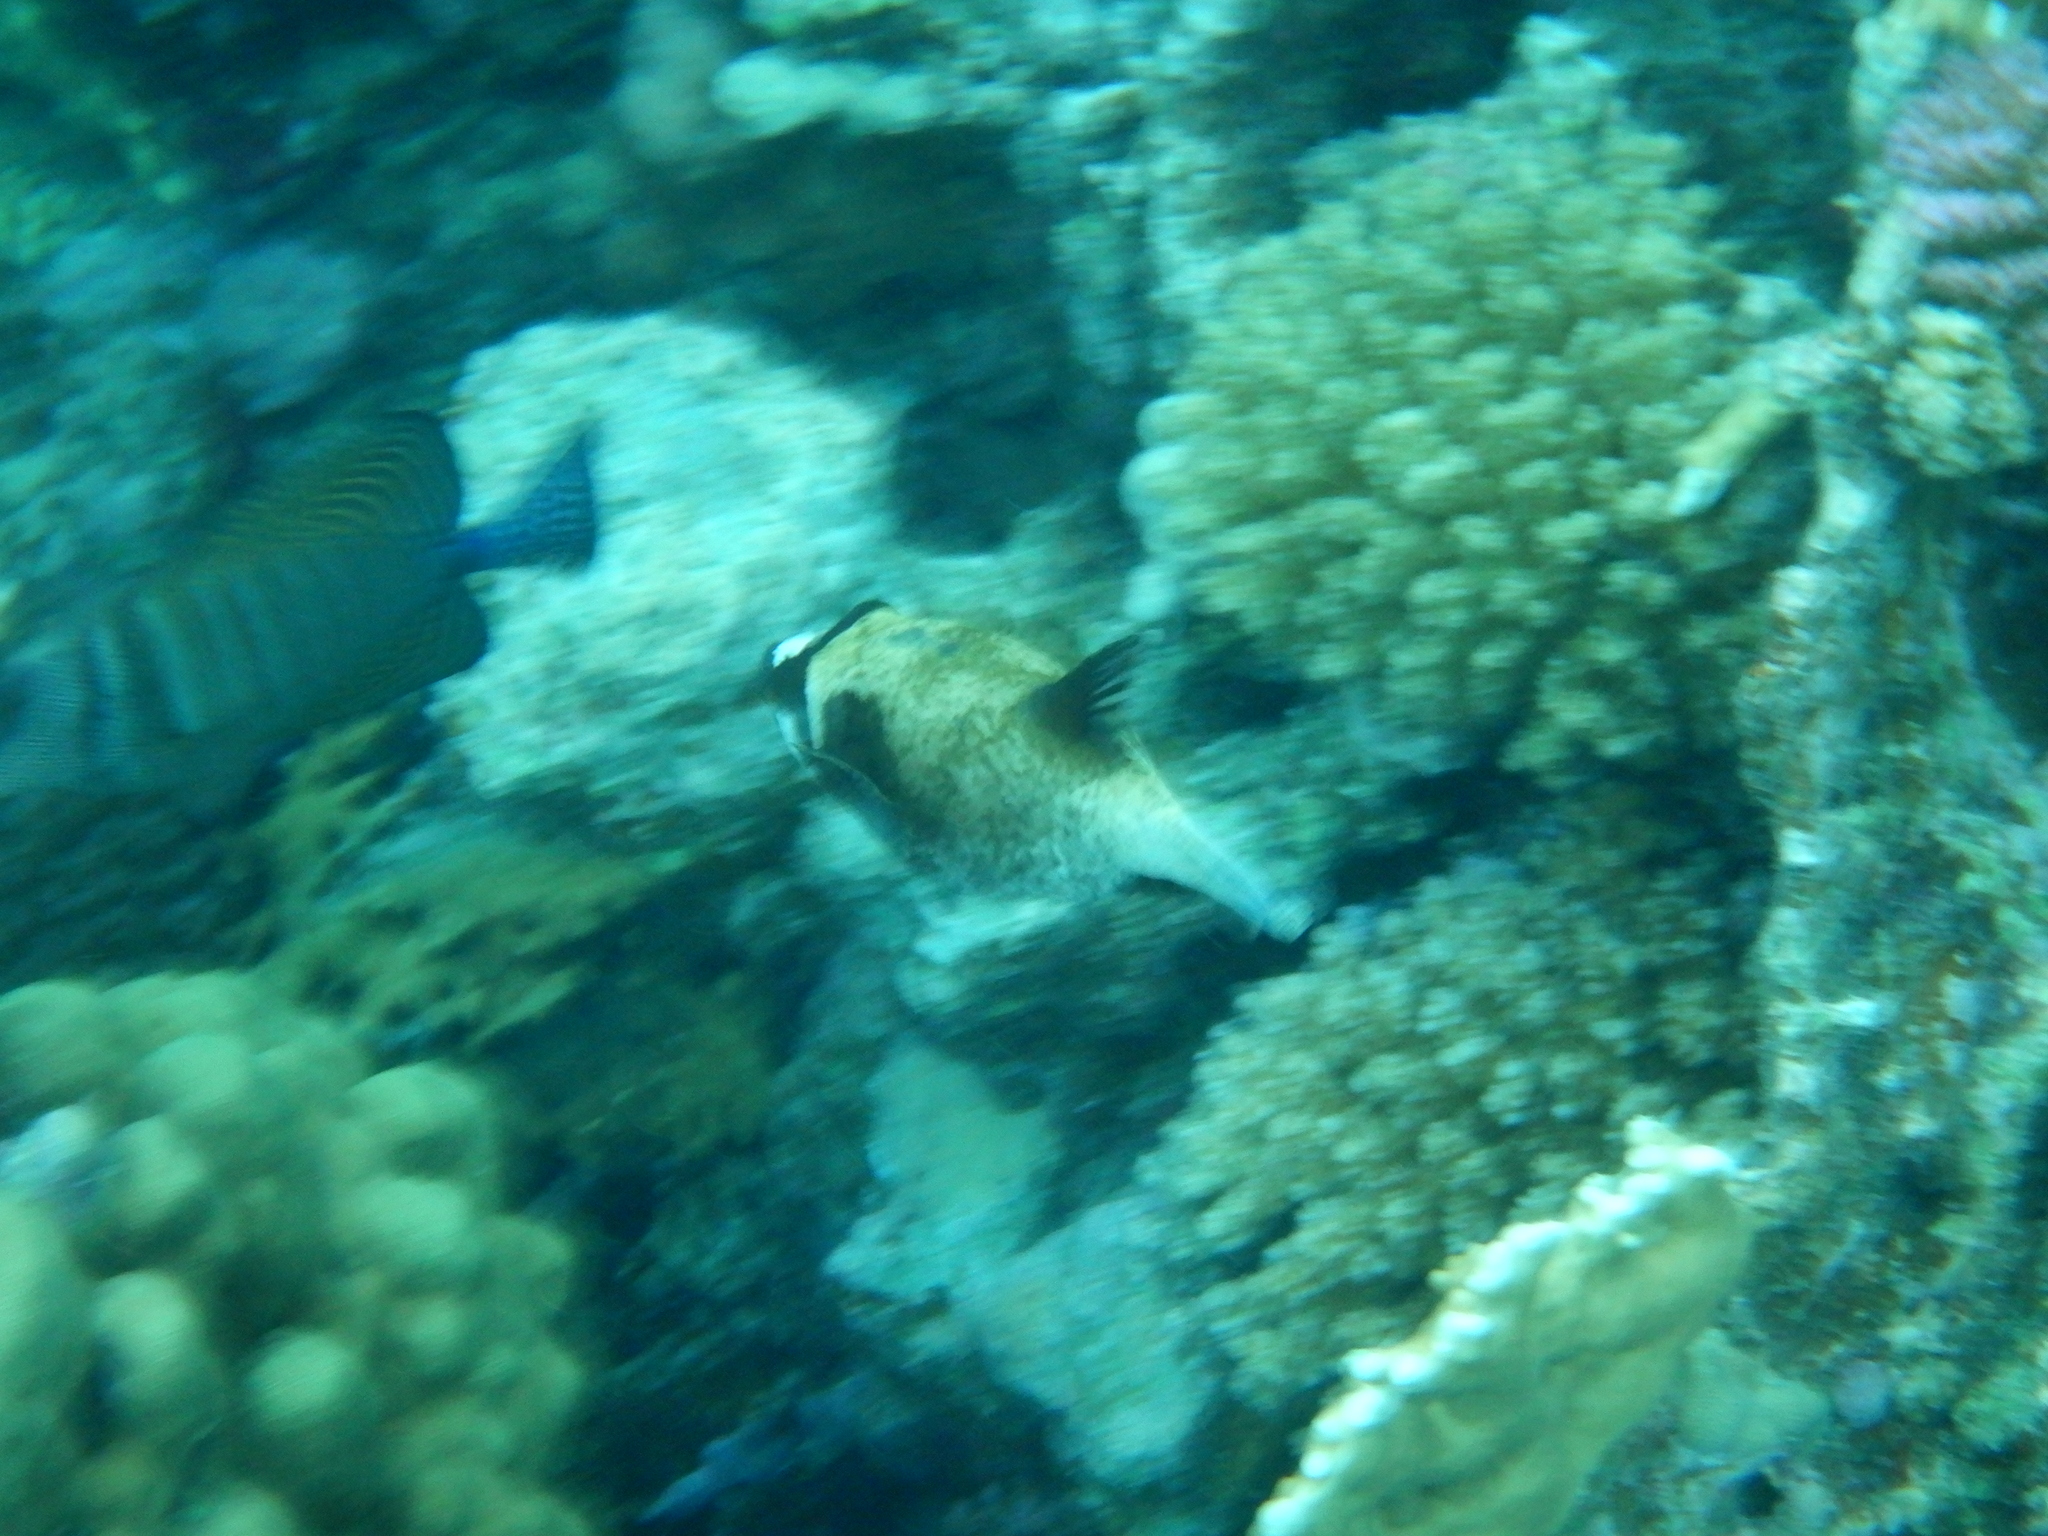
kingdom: Animalia
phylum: Chordata
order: Tetraodontiformes
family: Tetraodontidae
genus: Arothron
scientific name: Arothron diadematus
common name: Masked puffer
